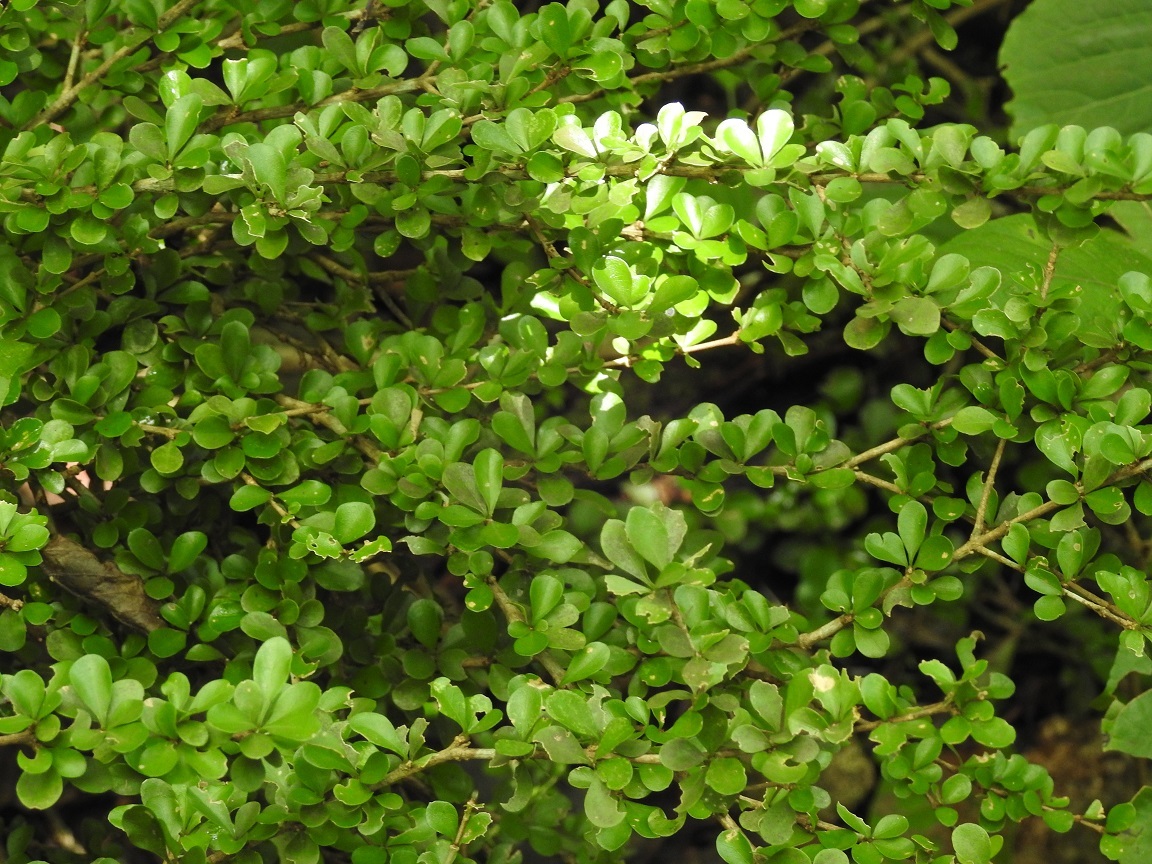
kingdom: Plantae
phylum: Tracheophyta
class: Magnoliopsida
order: Gentianales
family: Rubiaceae
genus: Randia
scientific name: Randia lonicerioides
